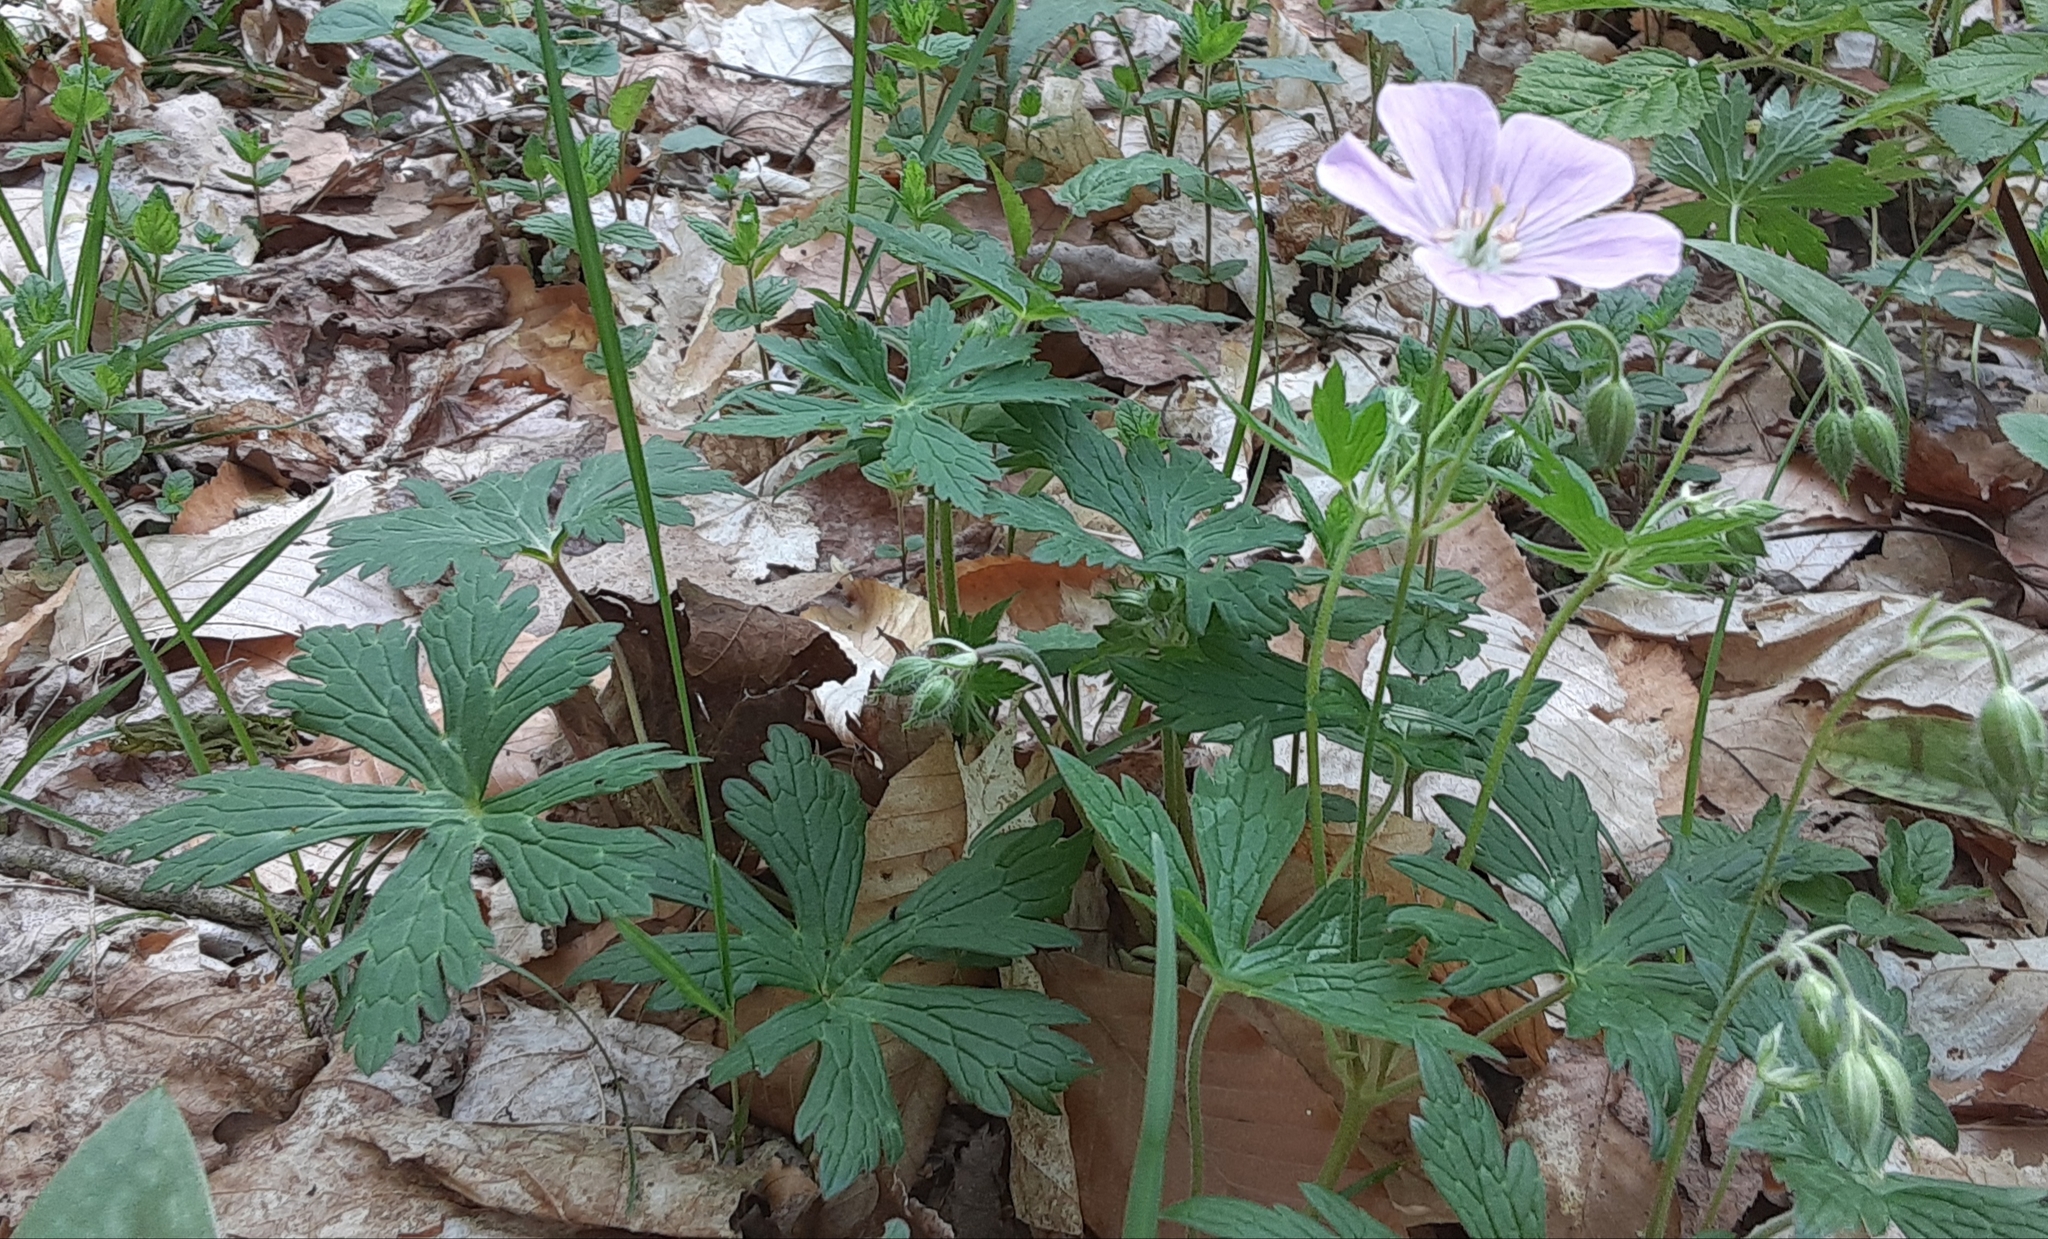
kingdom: Plantae
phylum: Tracheophyta
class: Magnoliopsida
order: Geraniales
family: Geraniaceae
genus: Geranium
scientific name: Geranium maculatum
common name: Spotted geranium
